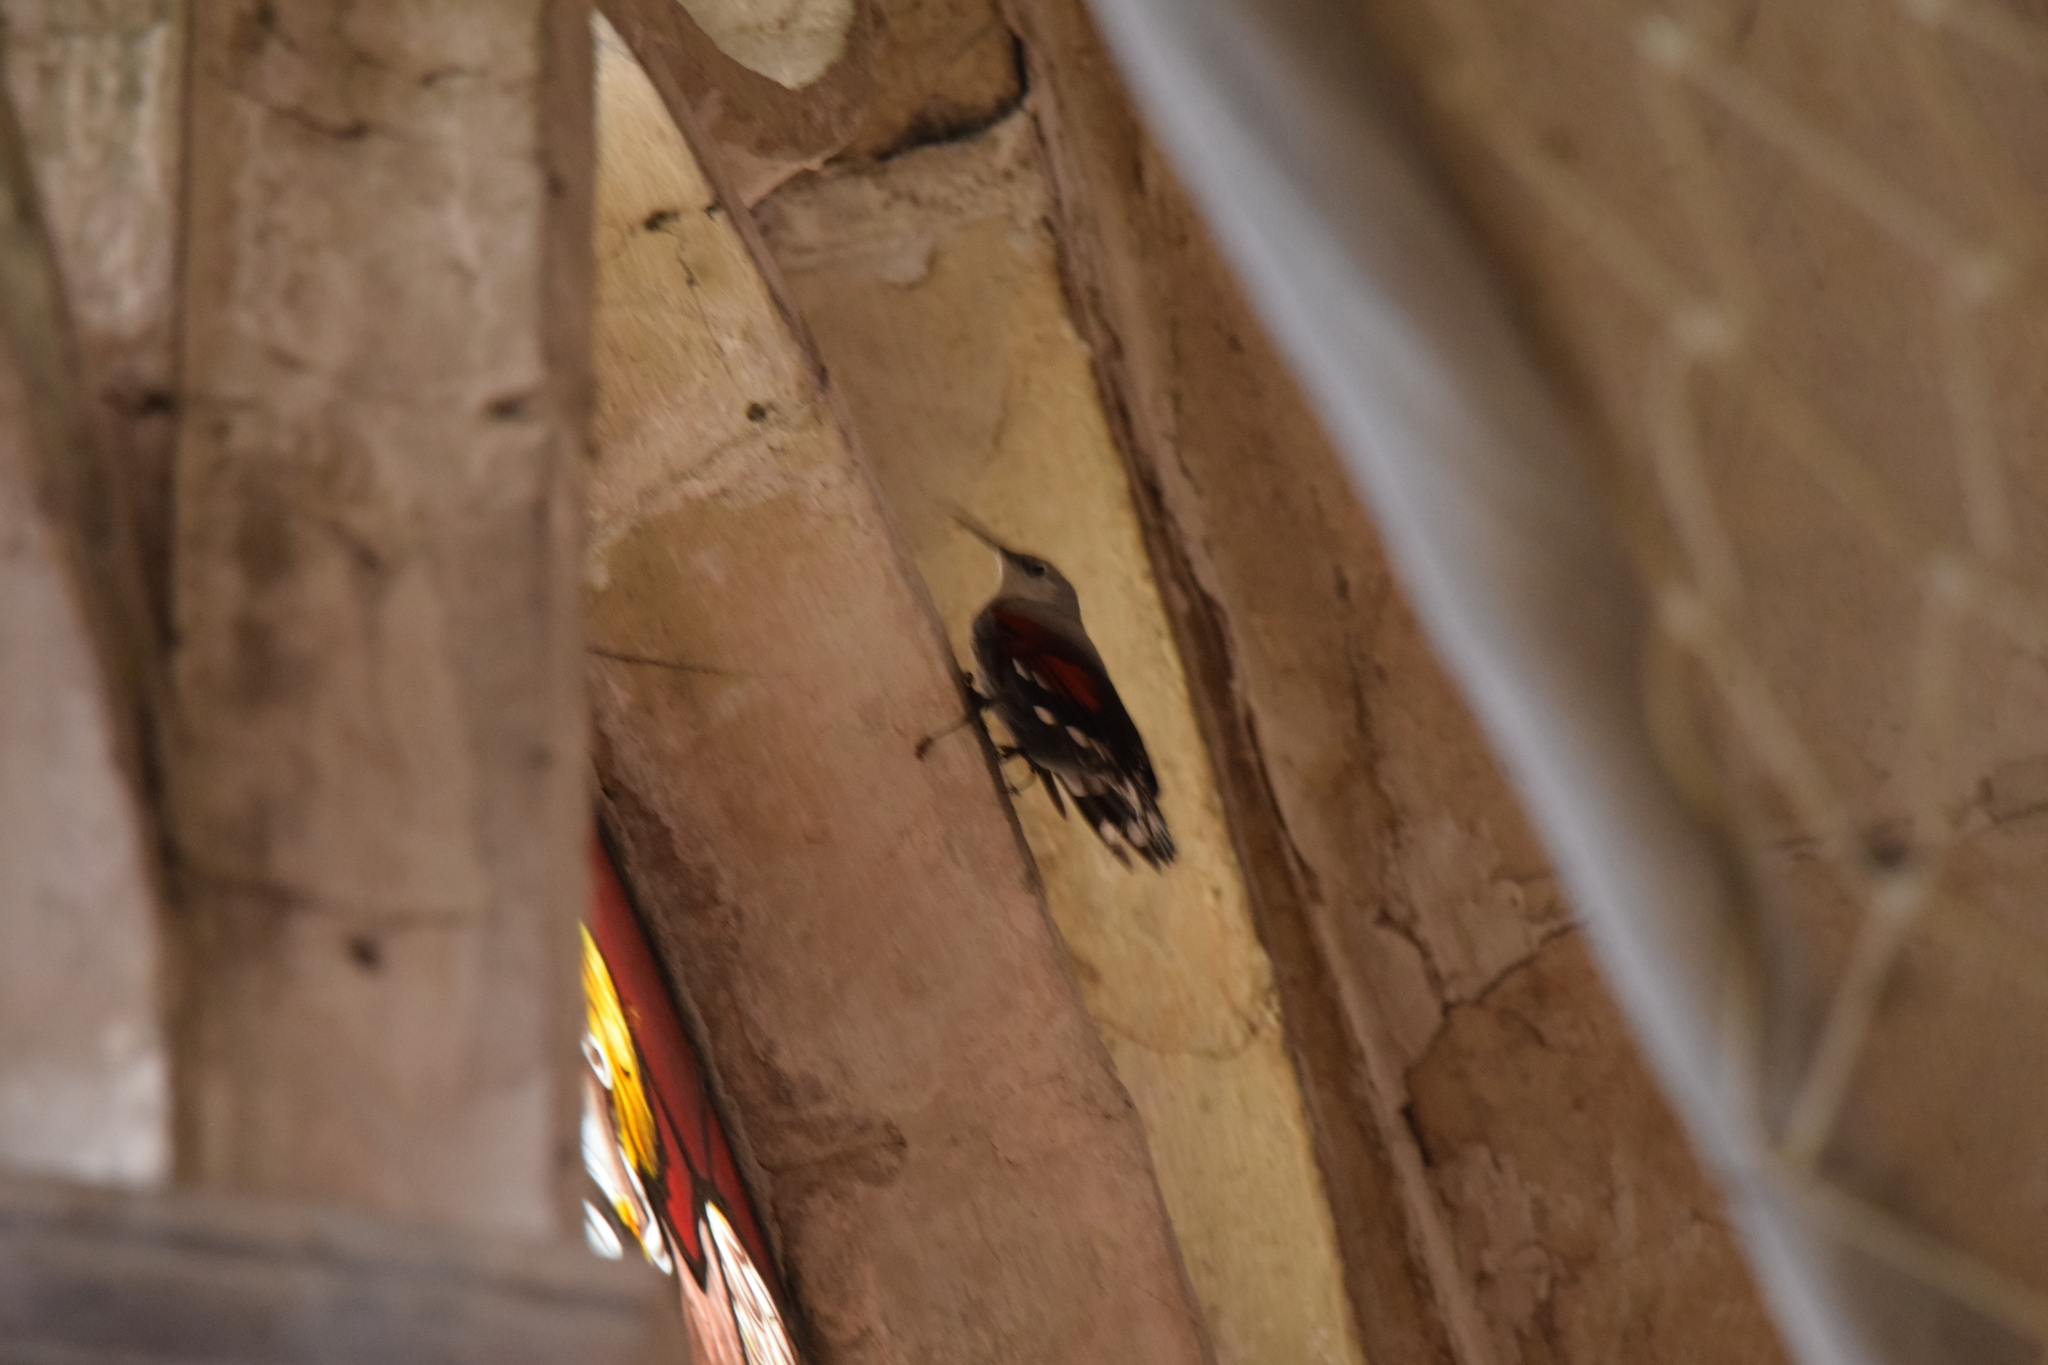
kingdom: Animalia
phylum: Chordata
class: Aves
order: Passeriformes
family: Tichodromidae
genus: Tichodroma
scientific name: Tichodroma muraria
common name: Wallcreeper
